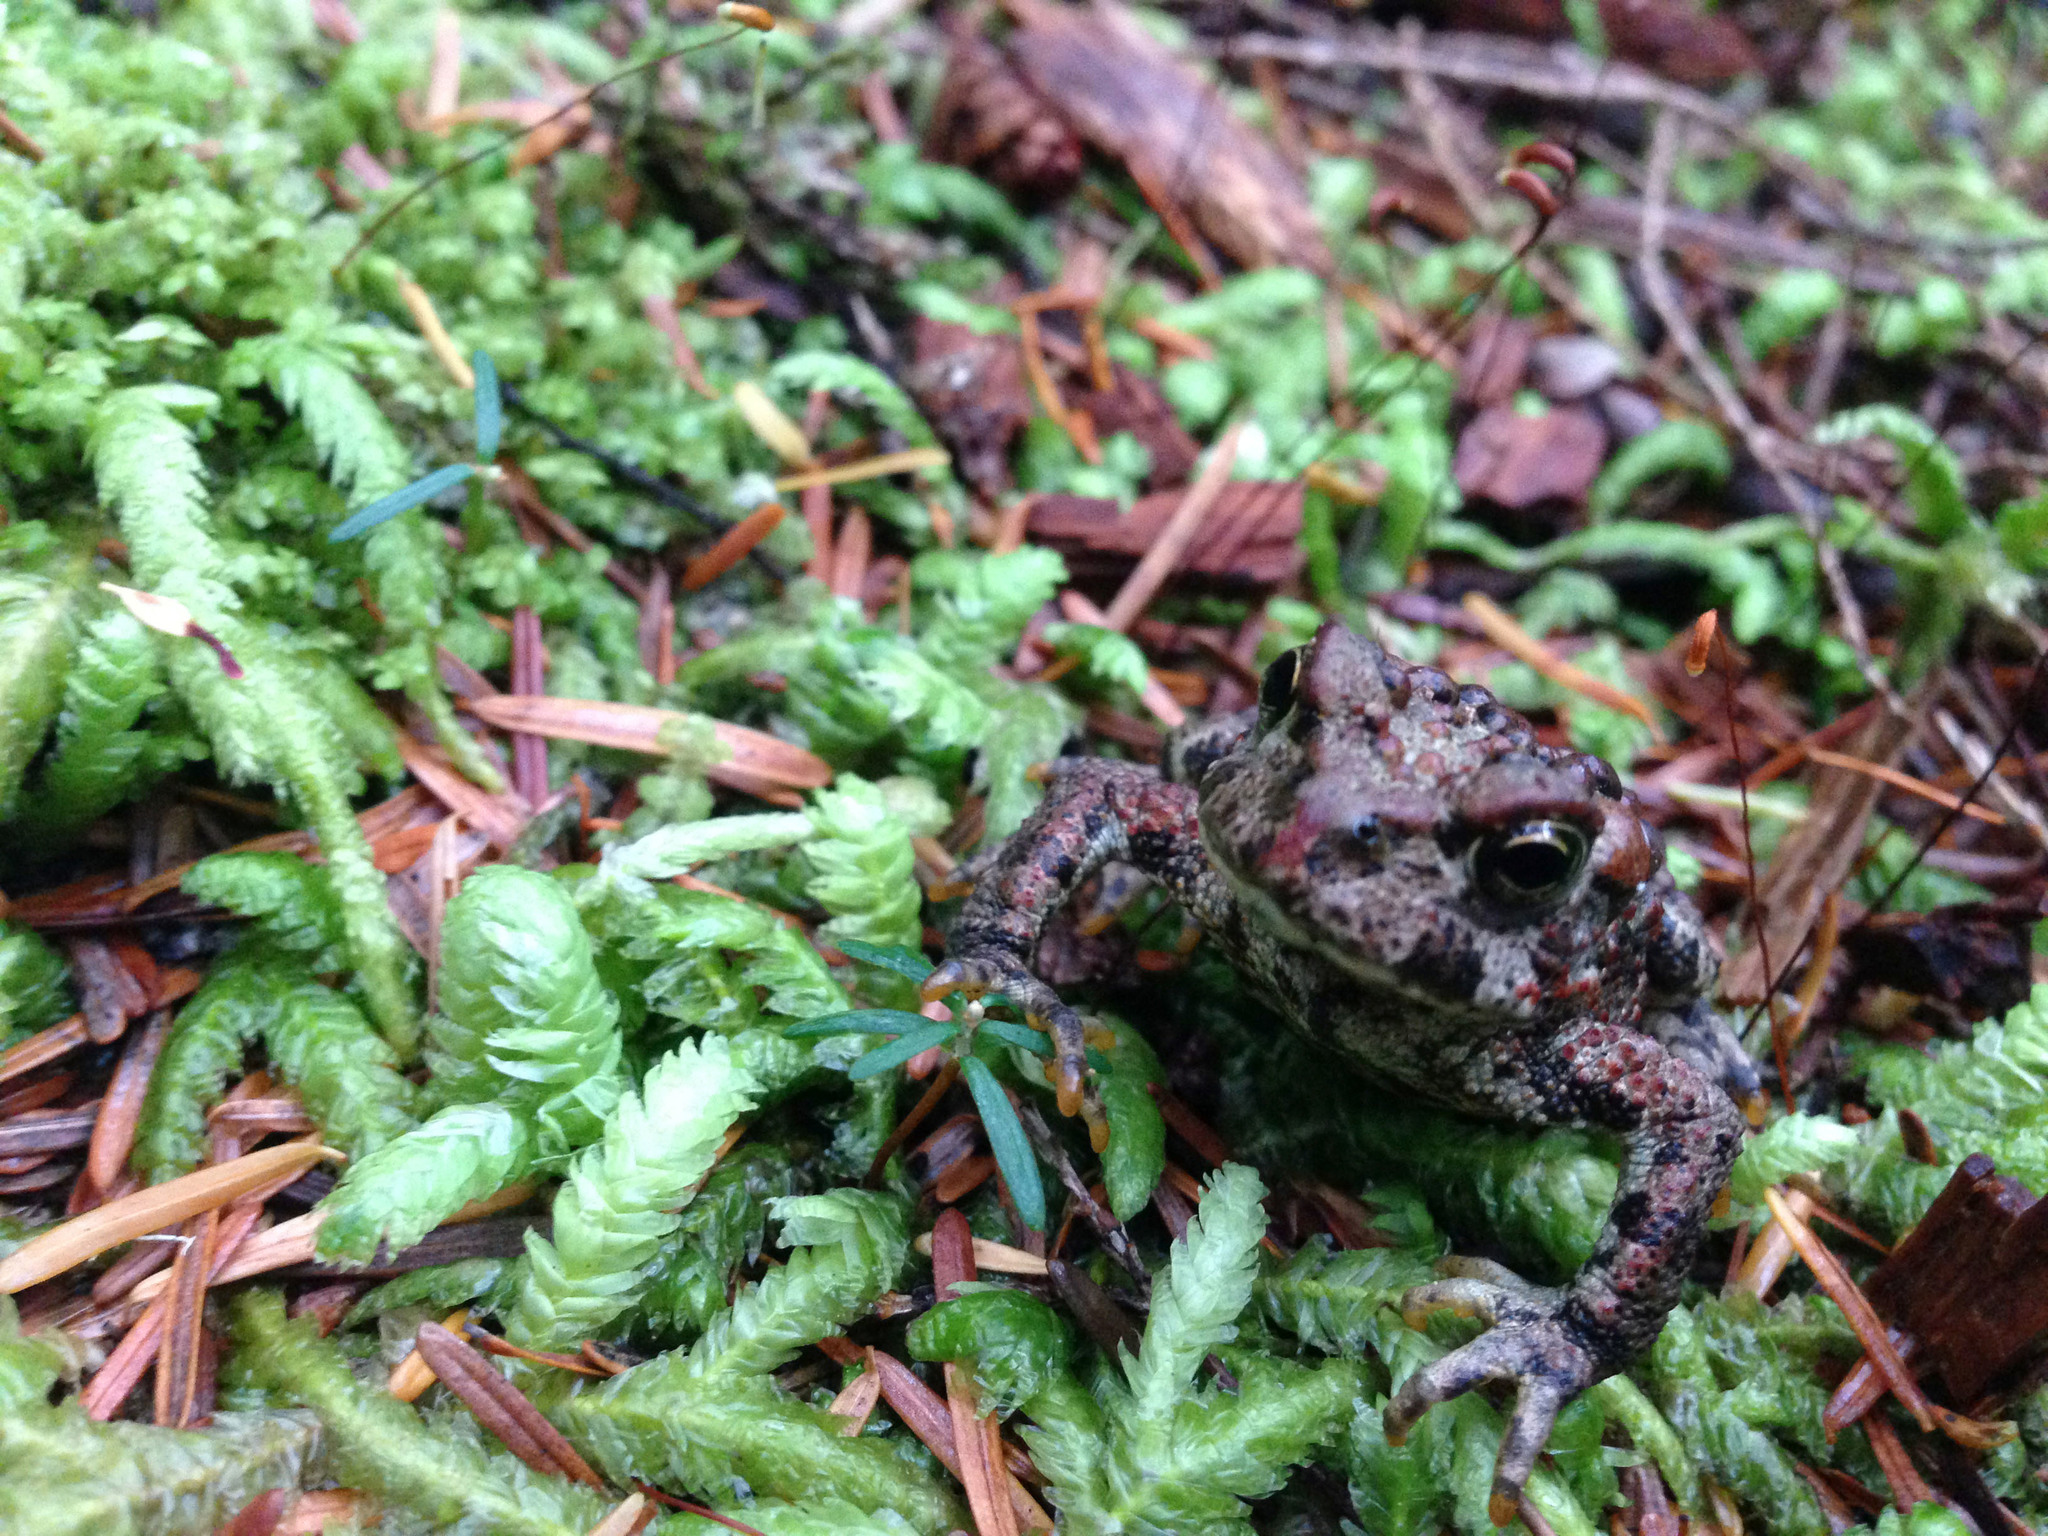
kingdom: Animalia
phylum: Chordata
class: Amphibia
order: Anura
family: Bufonidae
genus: Anaxyrus
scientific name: Anaxyrus boreas
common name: Western toad
